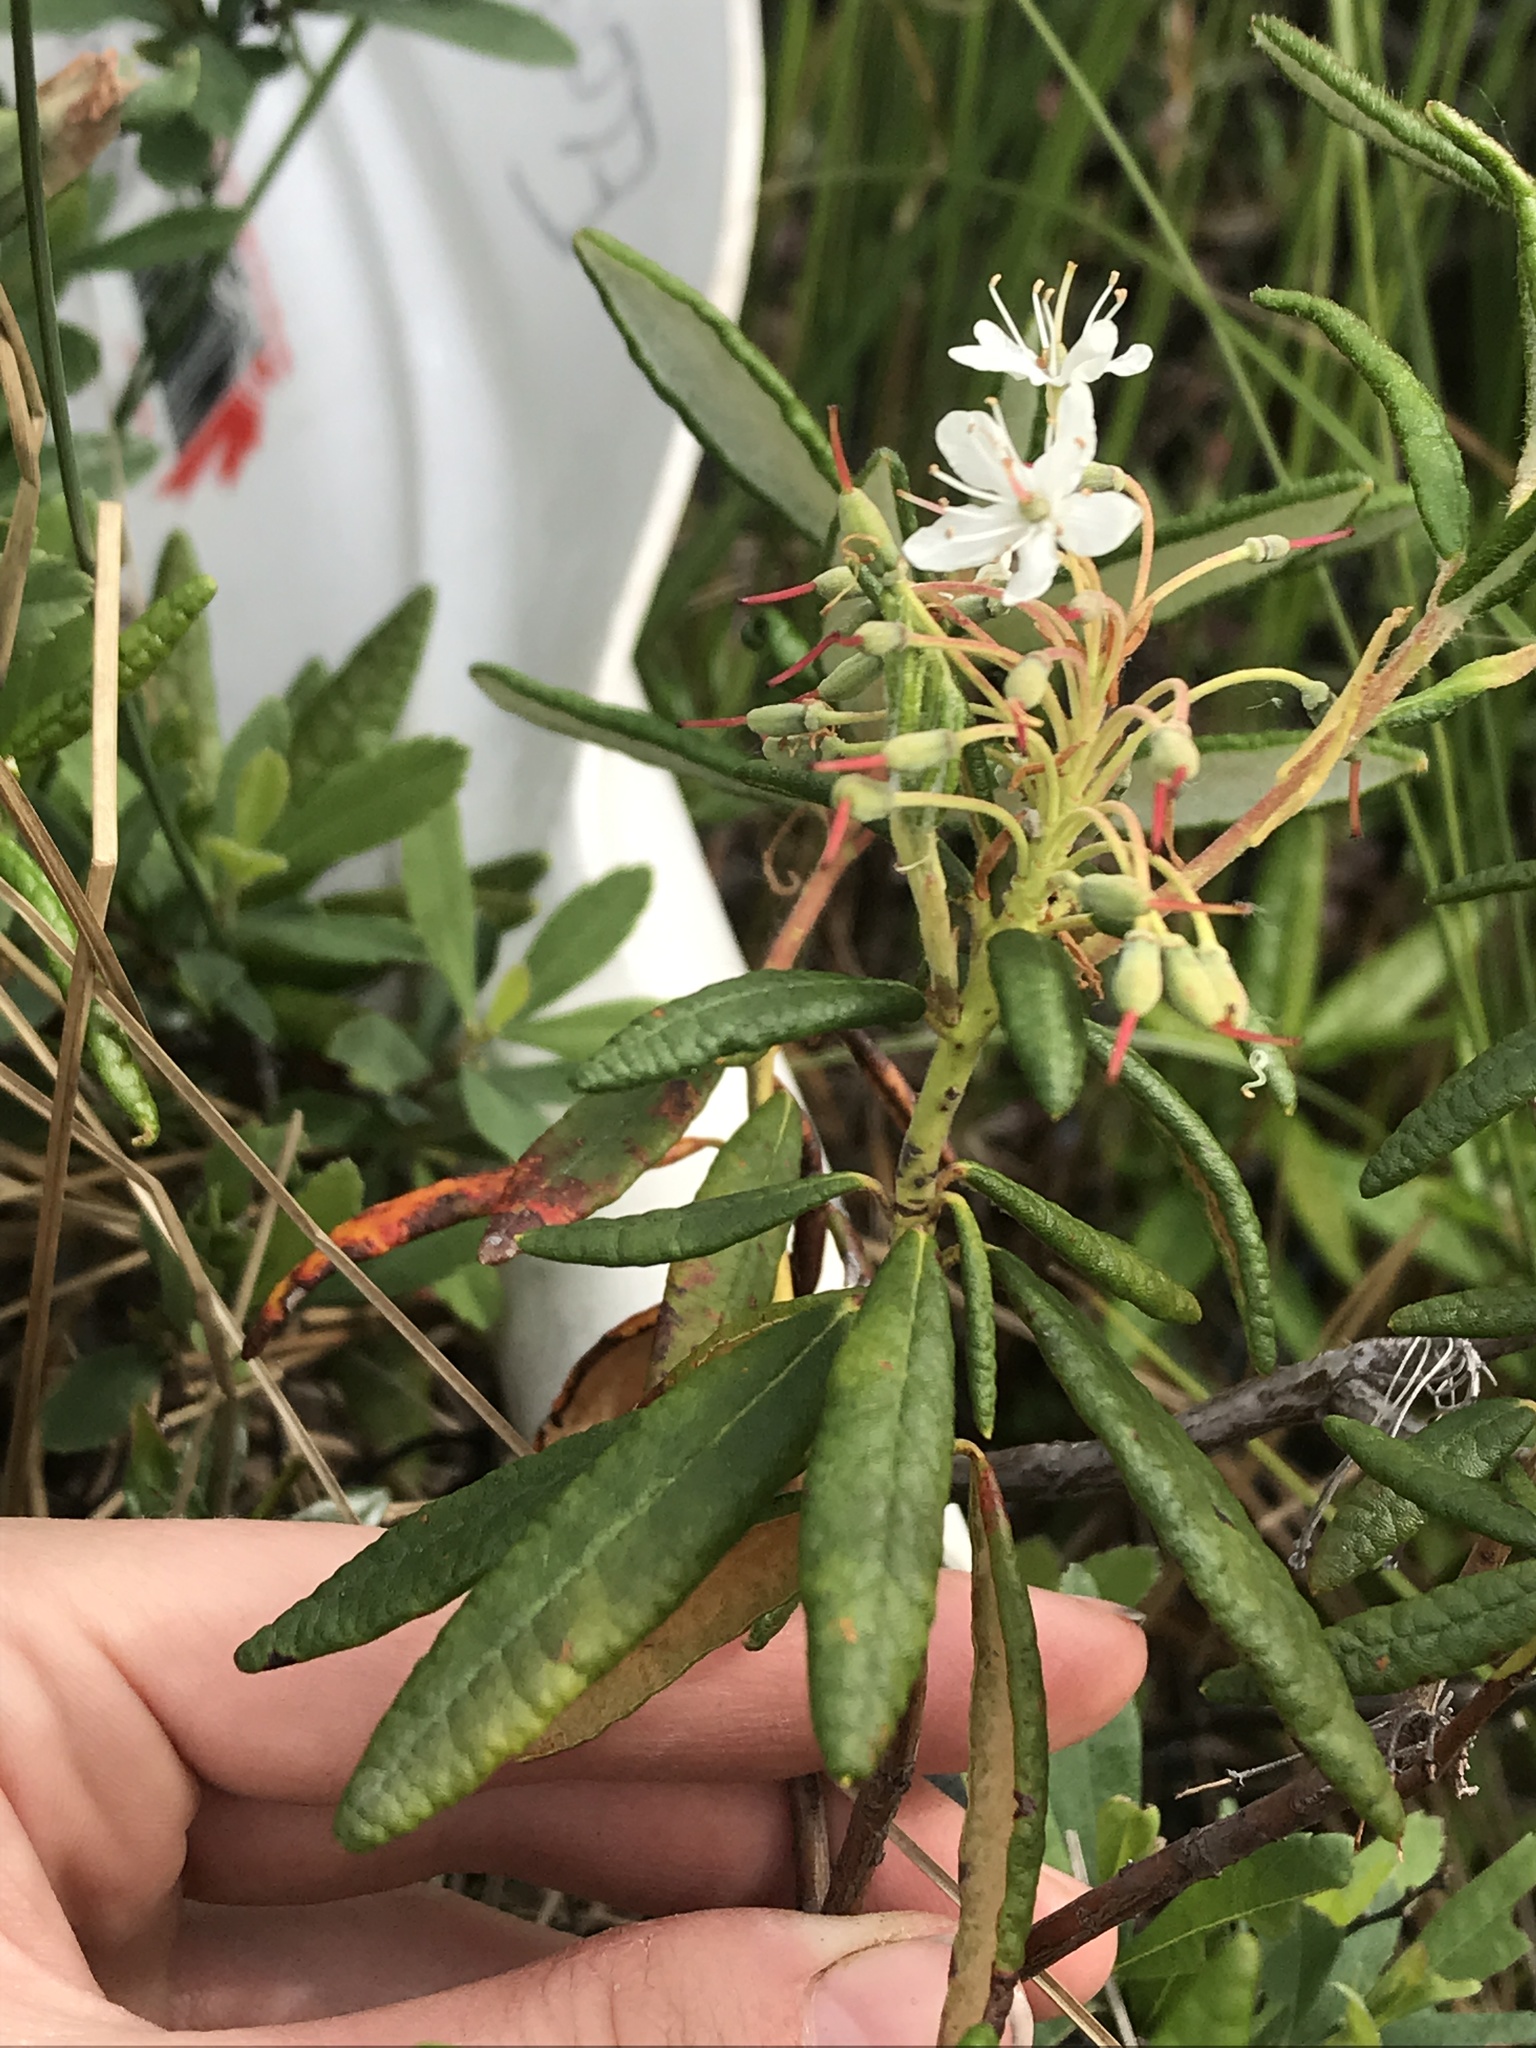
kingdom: Plantae
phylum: Tracheophyta
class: Magnoliopsida
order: Ericales
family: Ericaceae
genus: Rhododendron
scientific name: Rhododendron groenlandicum
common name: Bog labrador tea
